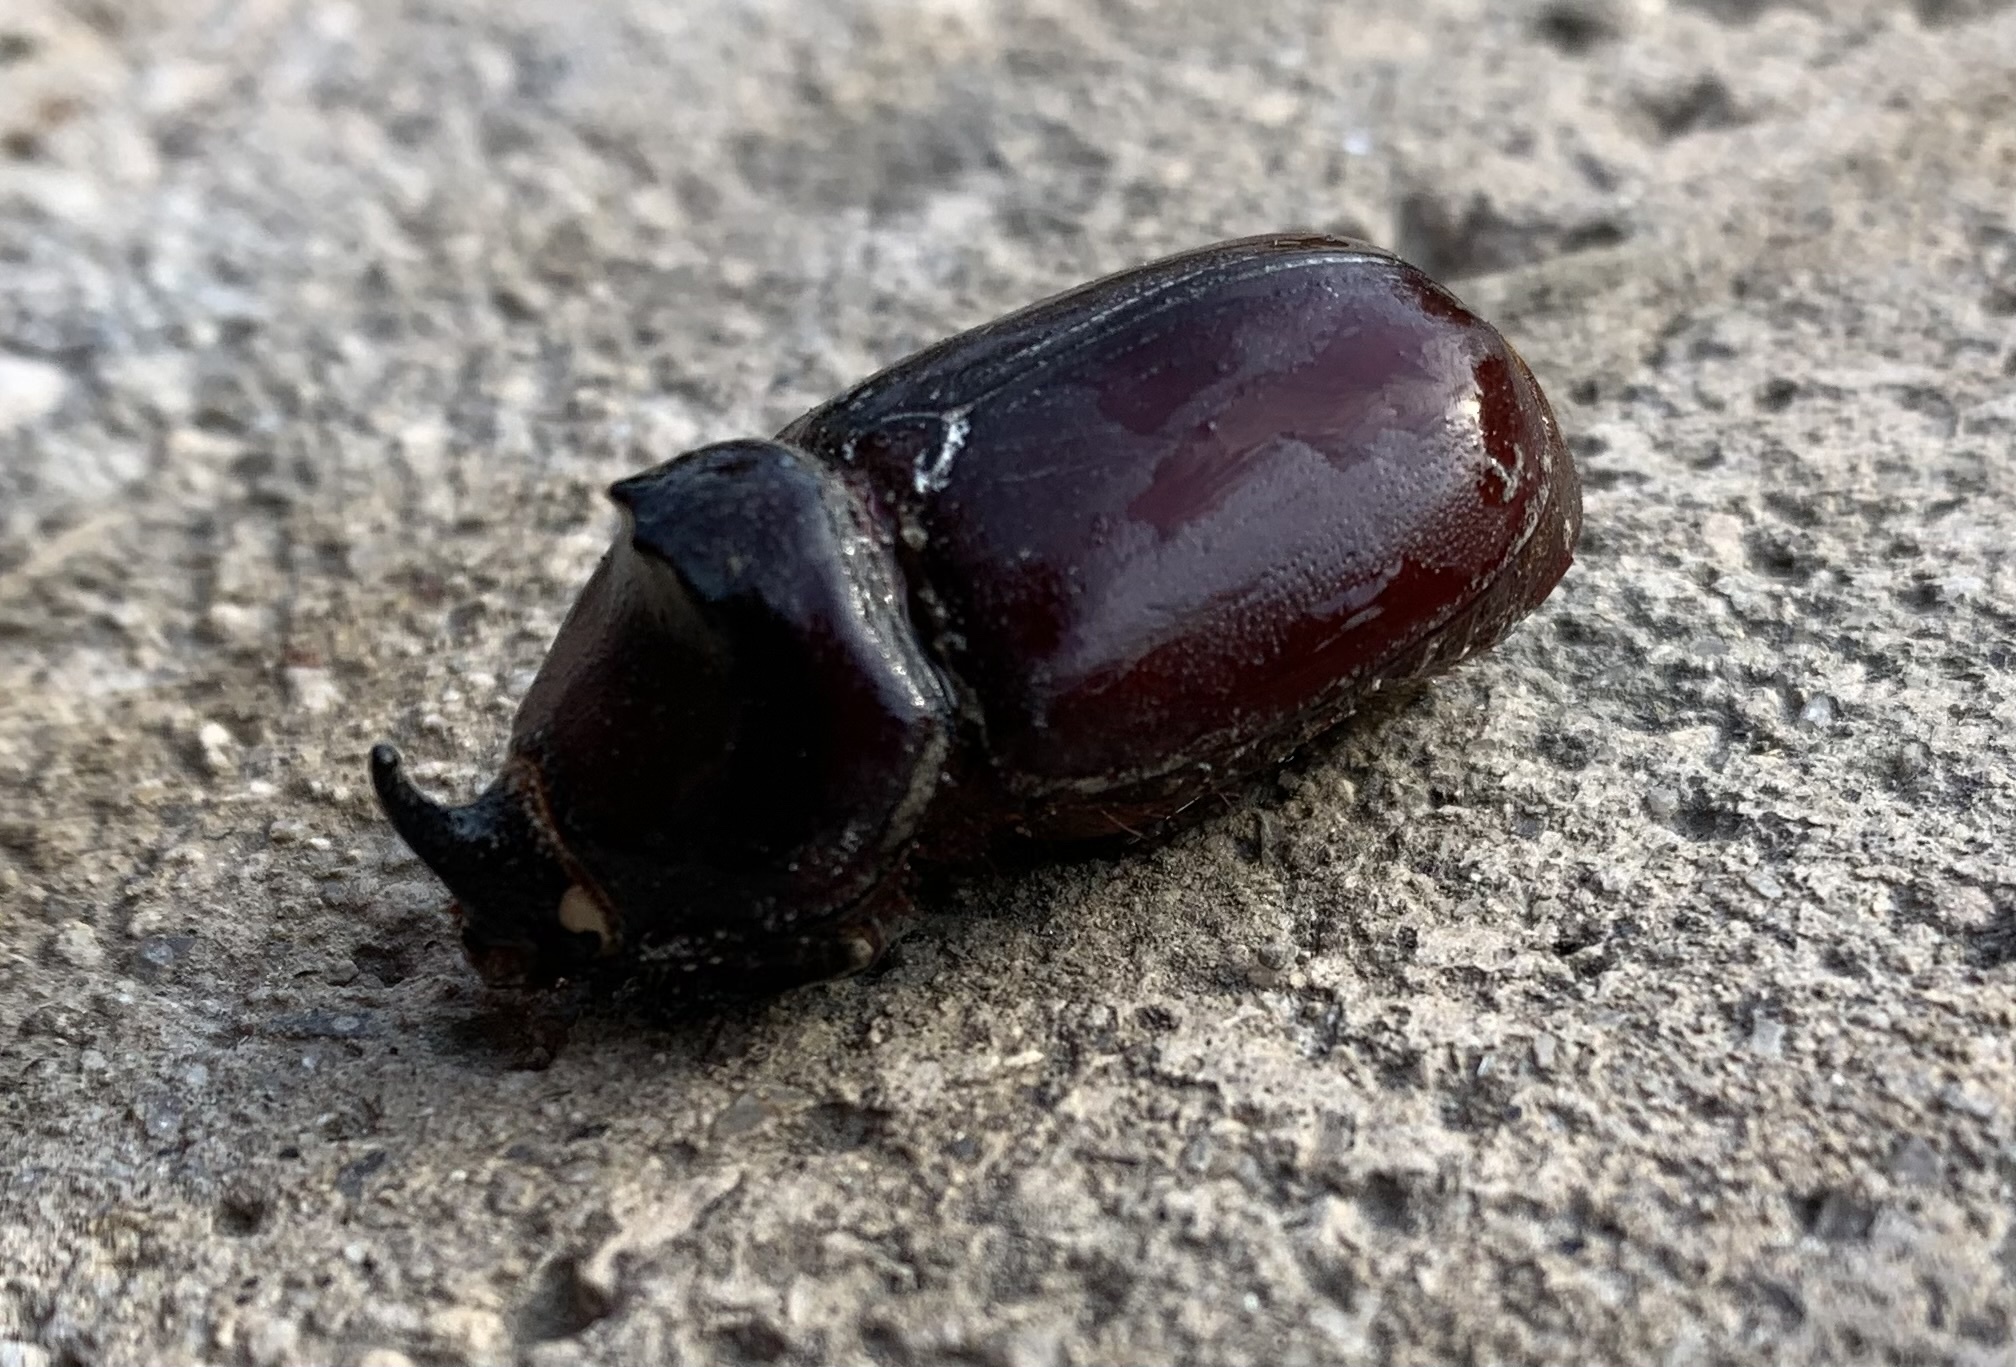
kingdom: Animalia
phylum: Arthropoda
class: Insecta
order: Coleoptera
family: Scarabaeidae
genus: Oryctes
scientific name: Oryctes nasicornis
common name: European rhinoceros beetle
